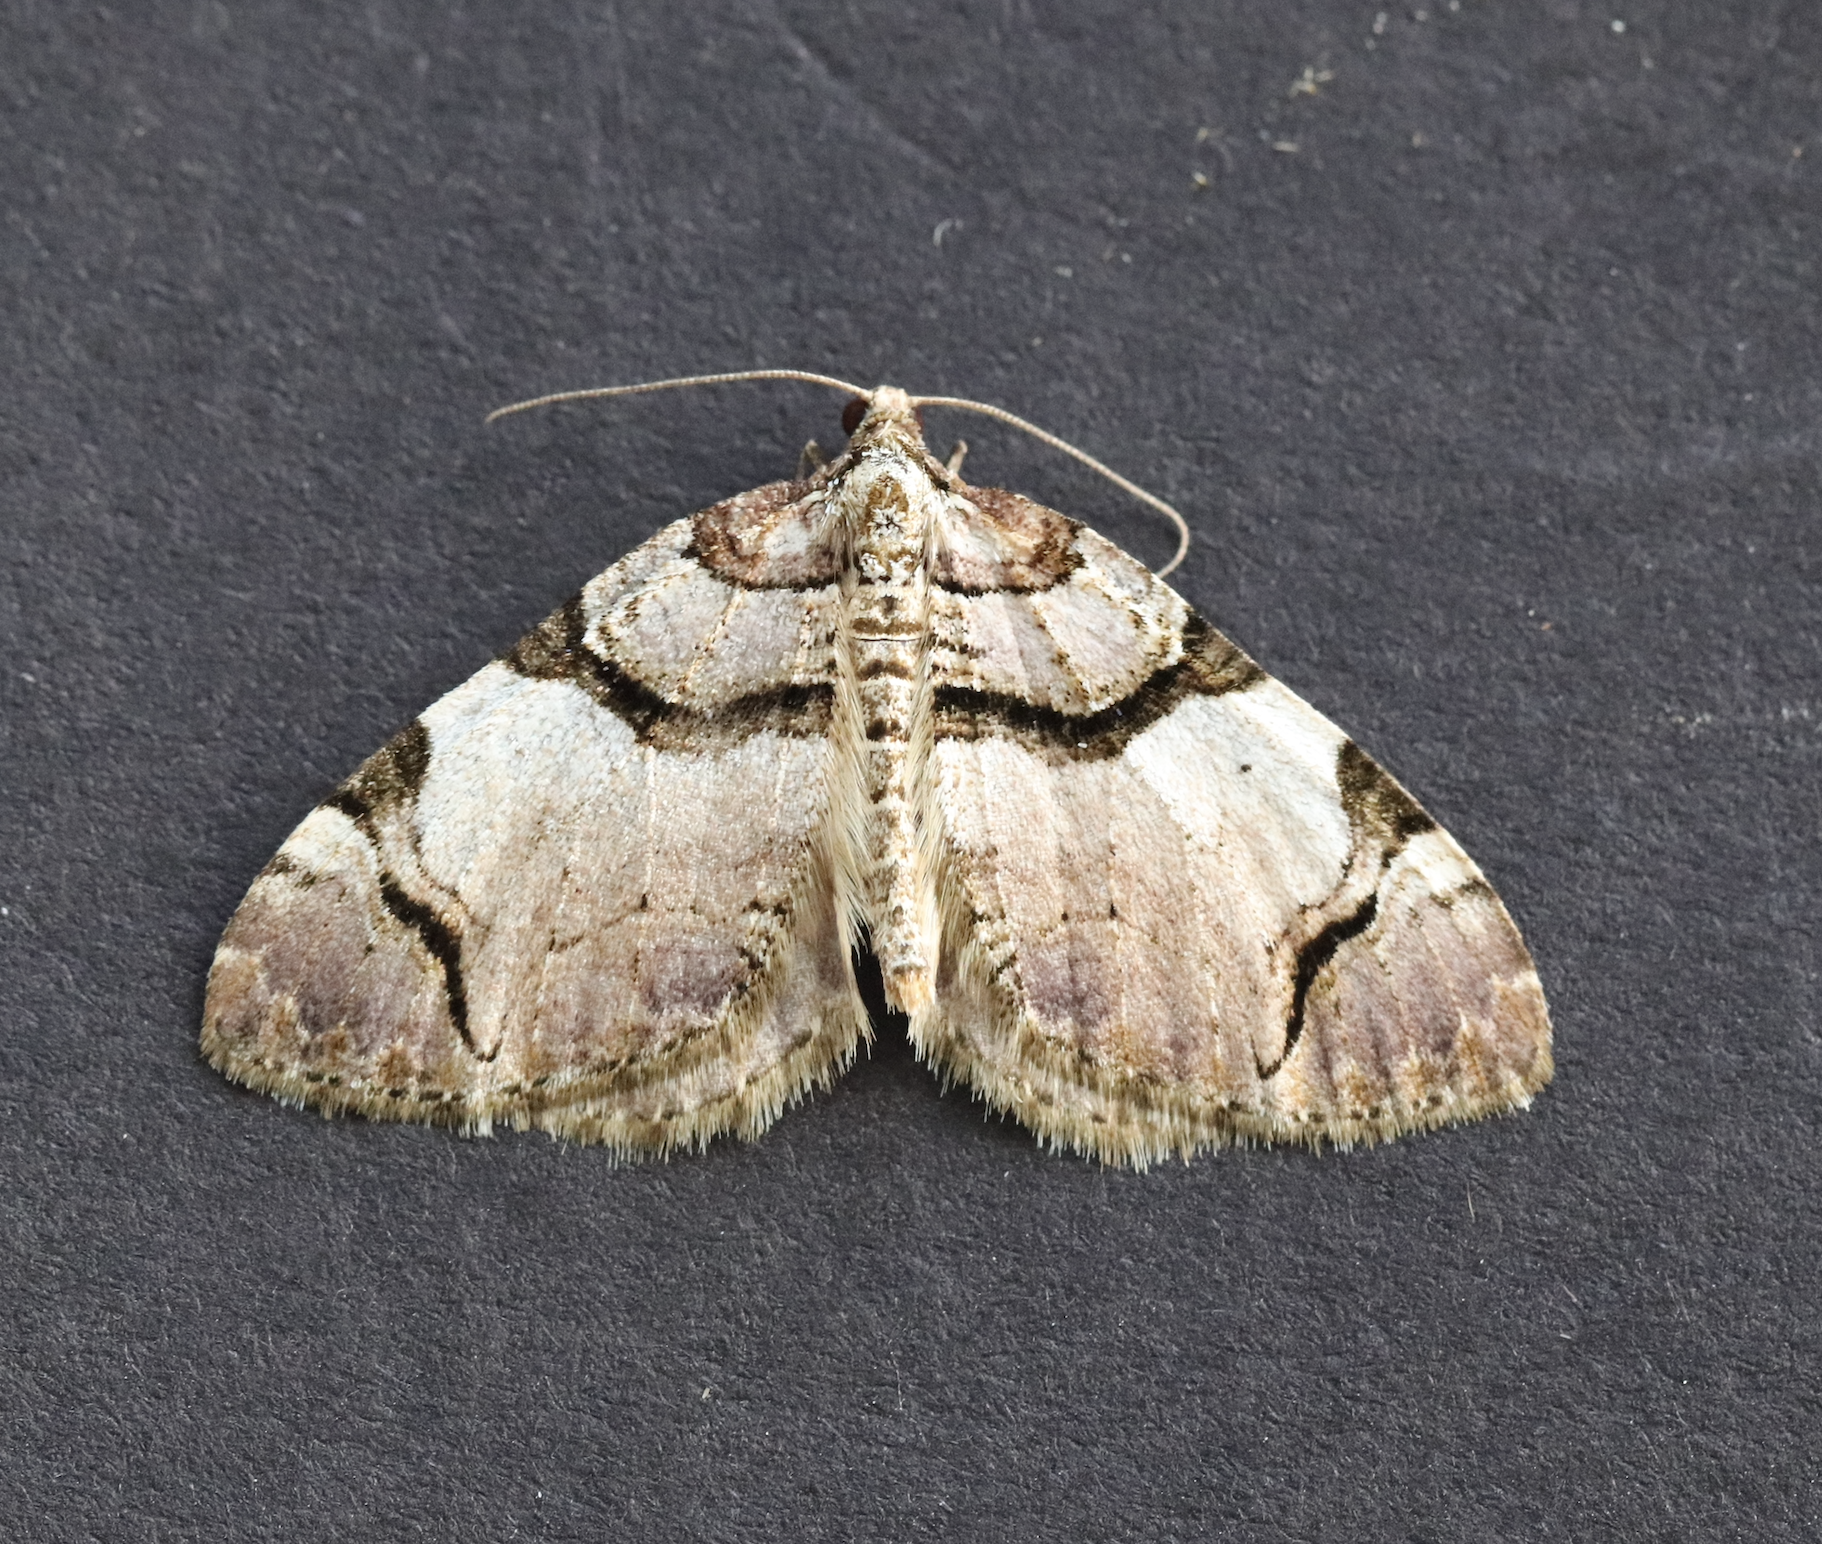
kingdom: Animalia
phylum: Arthropoda
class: Insecta
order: Lepidoptera
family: Geometridae
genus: Anticlea
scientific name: Anticlea derivata
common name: Streamer
